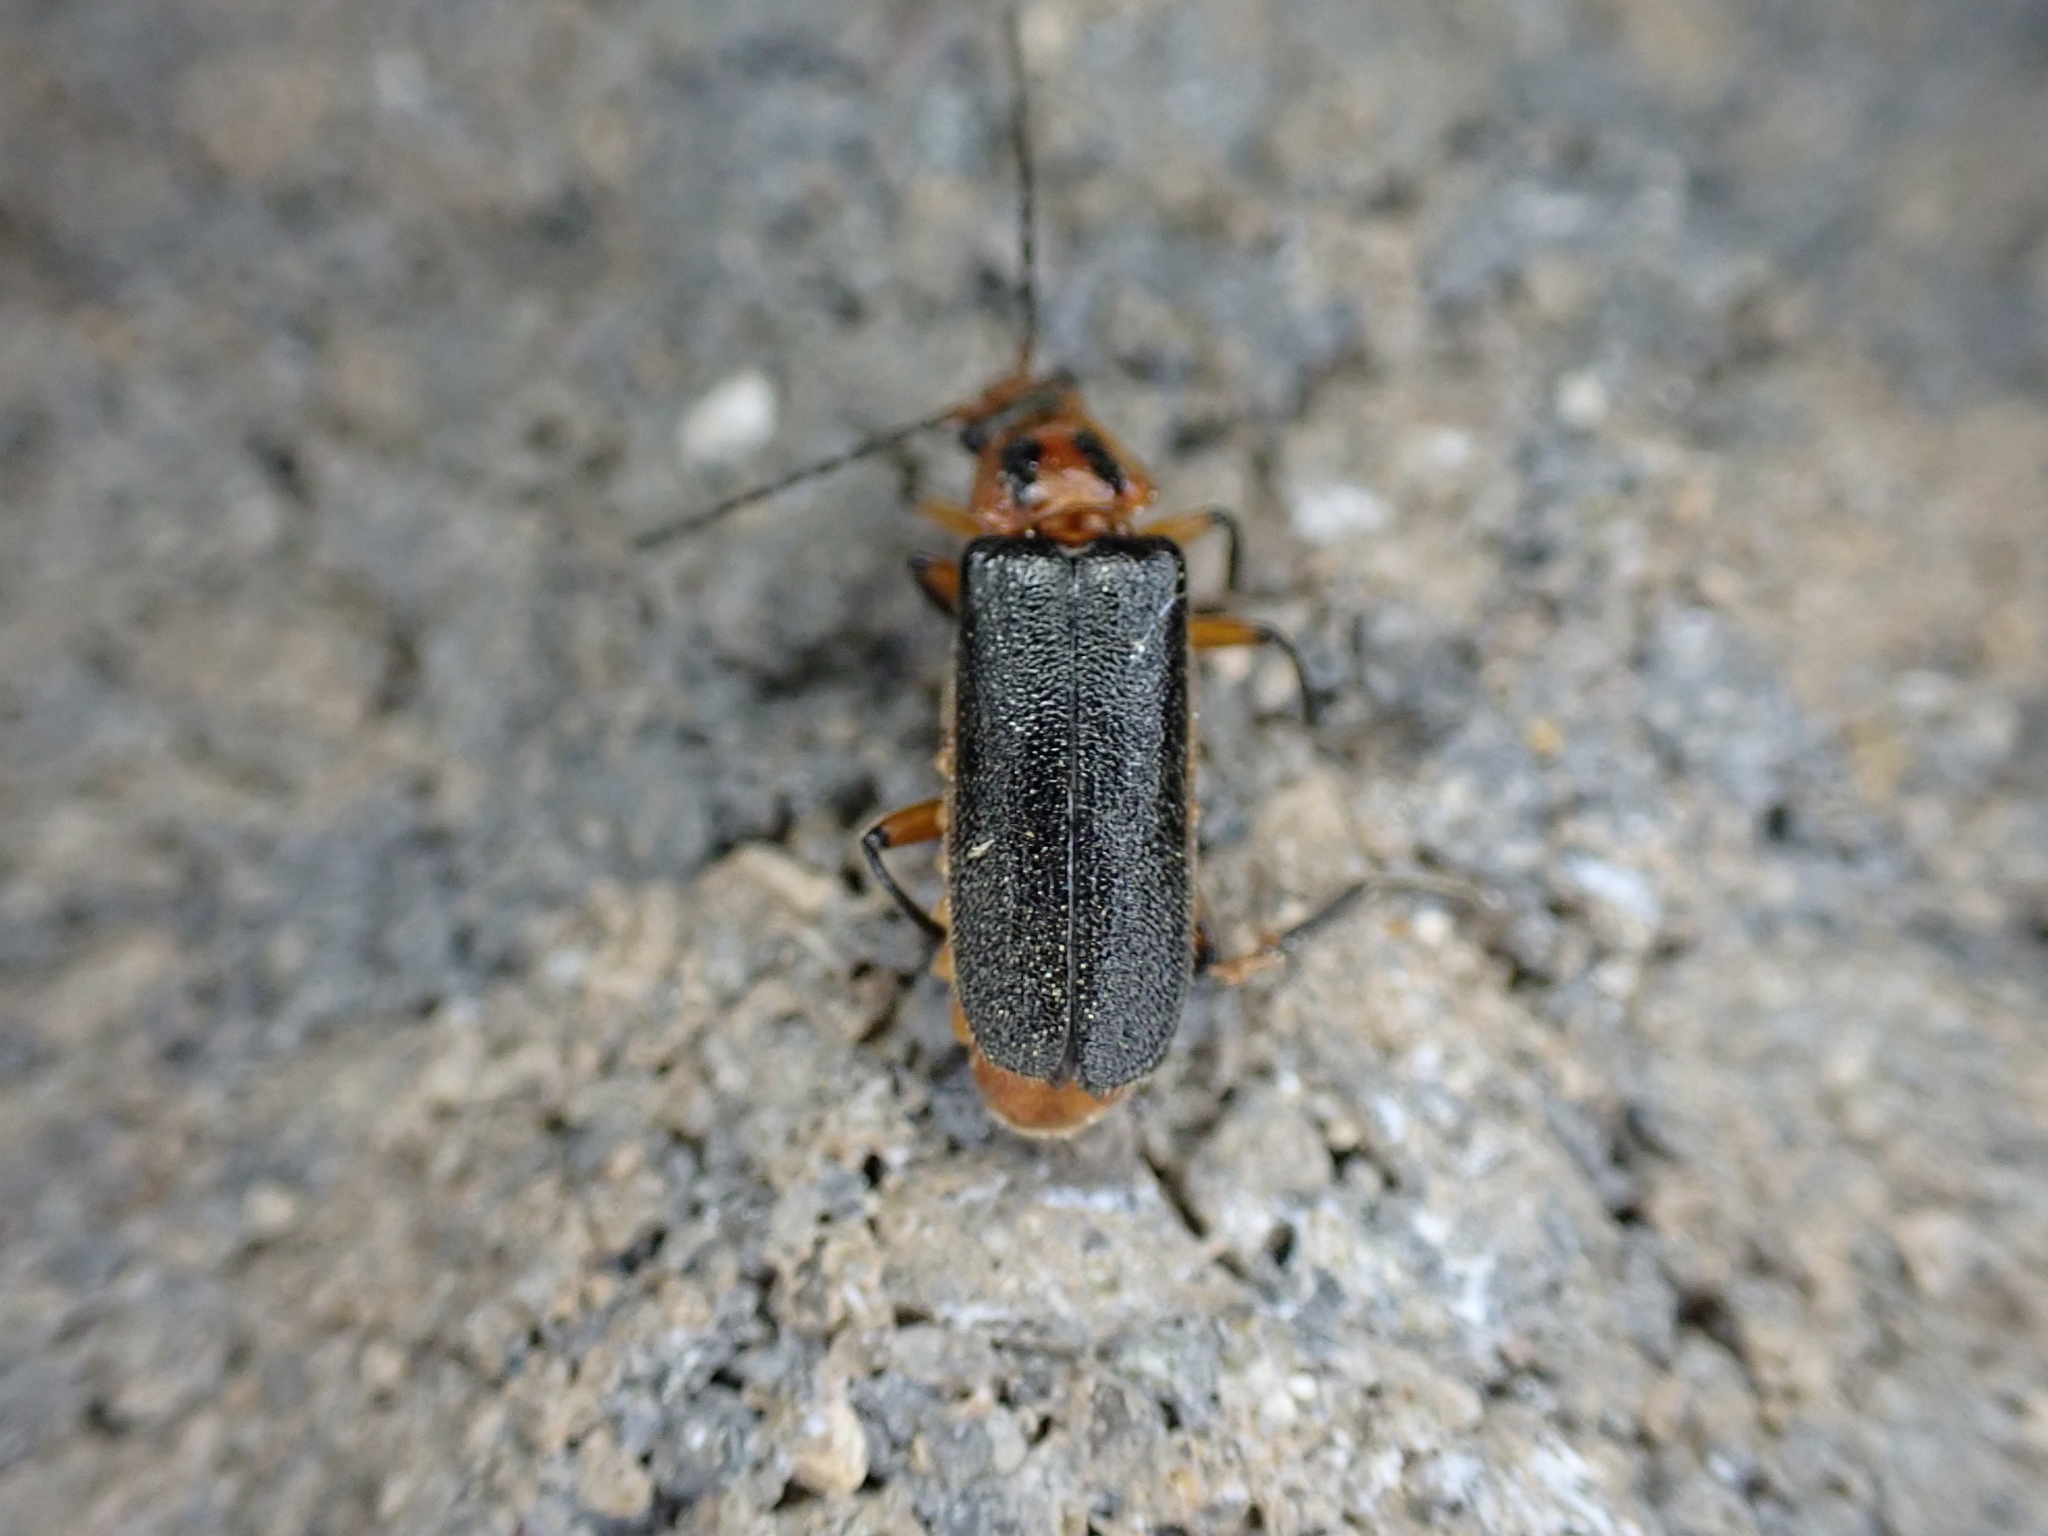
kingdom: Animalia
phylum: Arthropoda
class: Insecta
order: Coleoptera
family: Cantharidae
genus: Atalantycha
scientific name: Atalantycha bilineata
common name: Two-lined leatherwing
